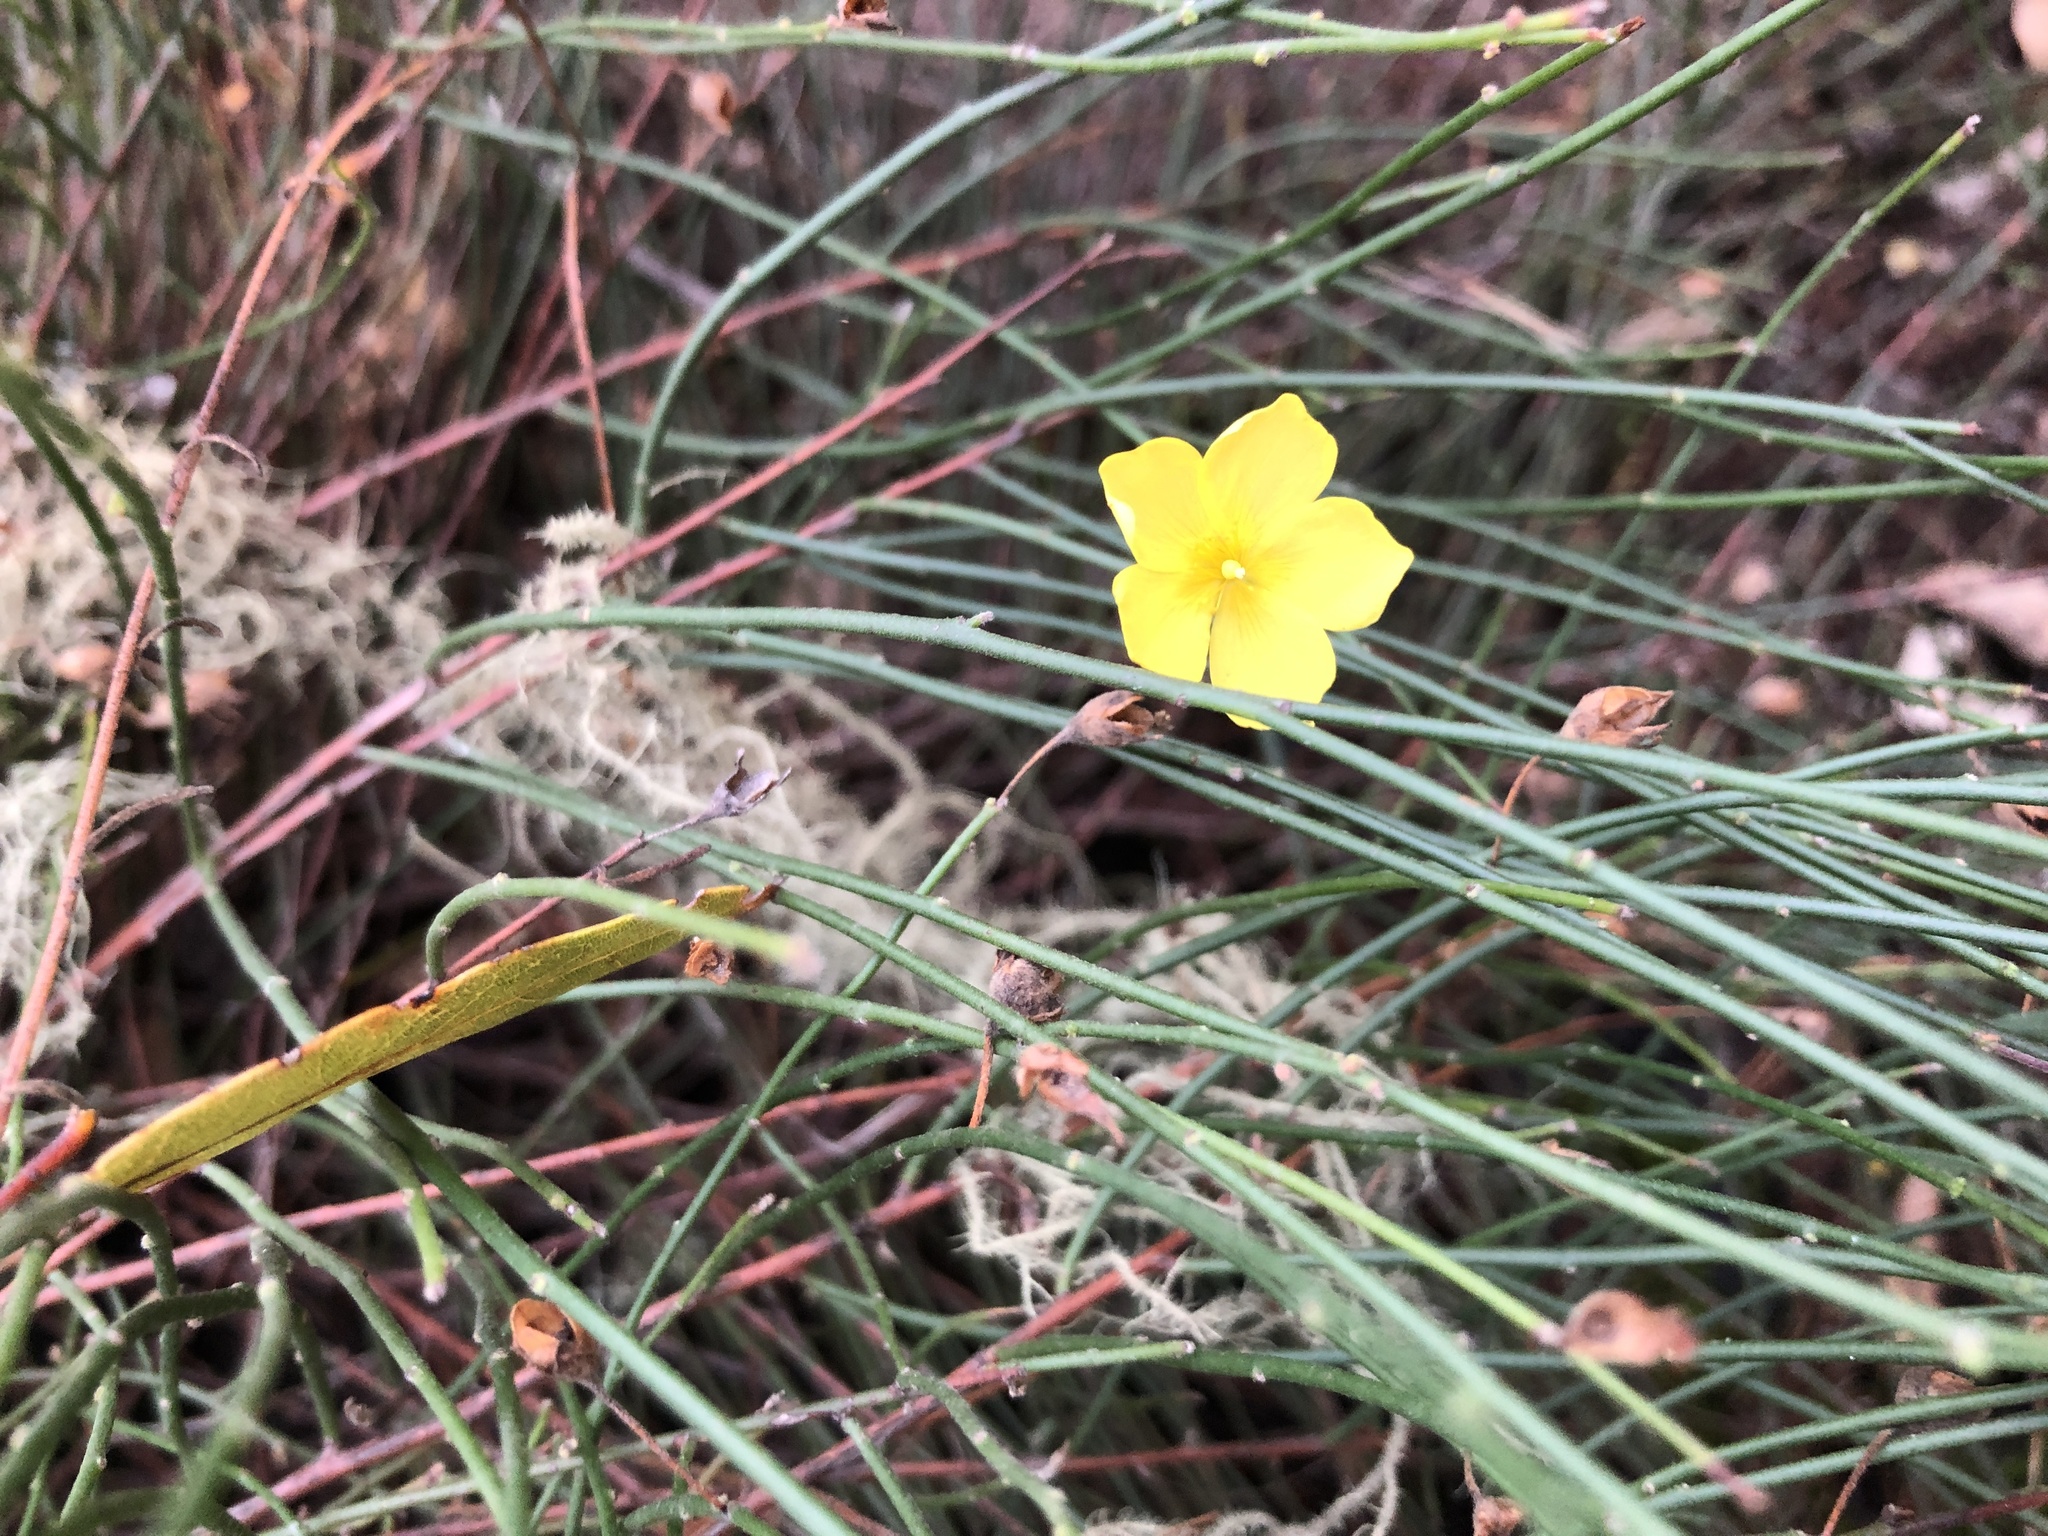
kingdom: Plantae
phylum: Tracheophyta
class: Magnoliopsida
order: Malvales
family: Cistaceae
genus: Crocanthemum
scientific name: Crocanthemum scoparium
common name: Broom-rose
